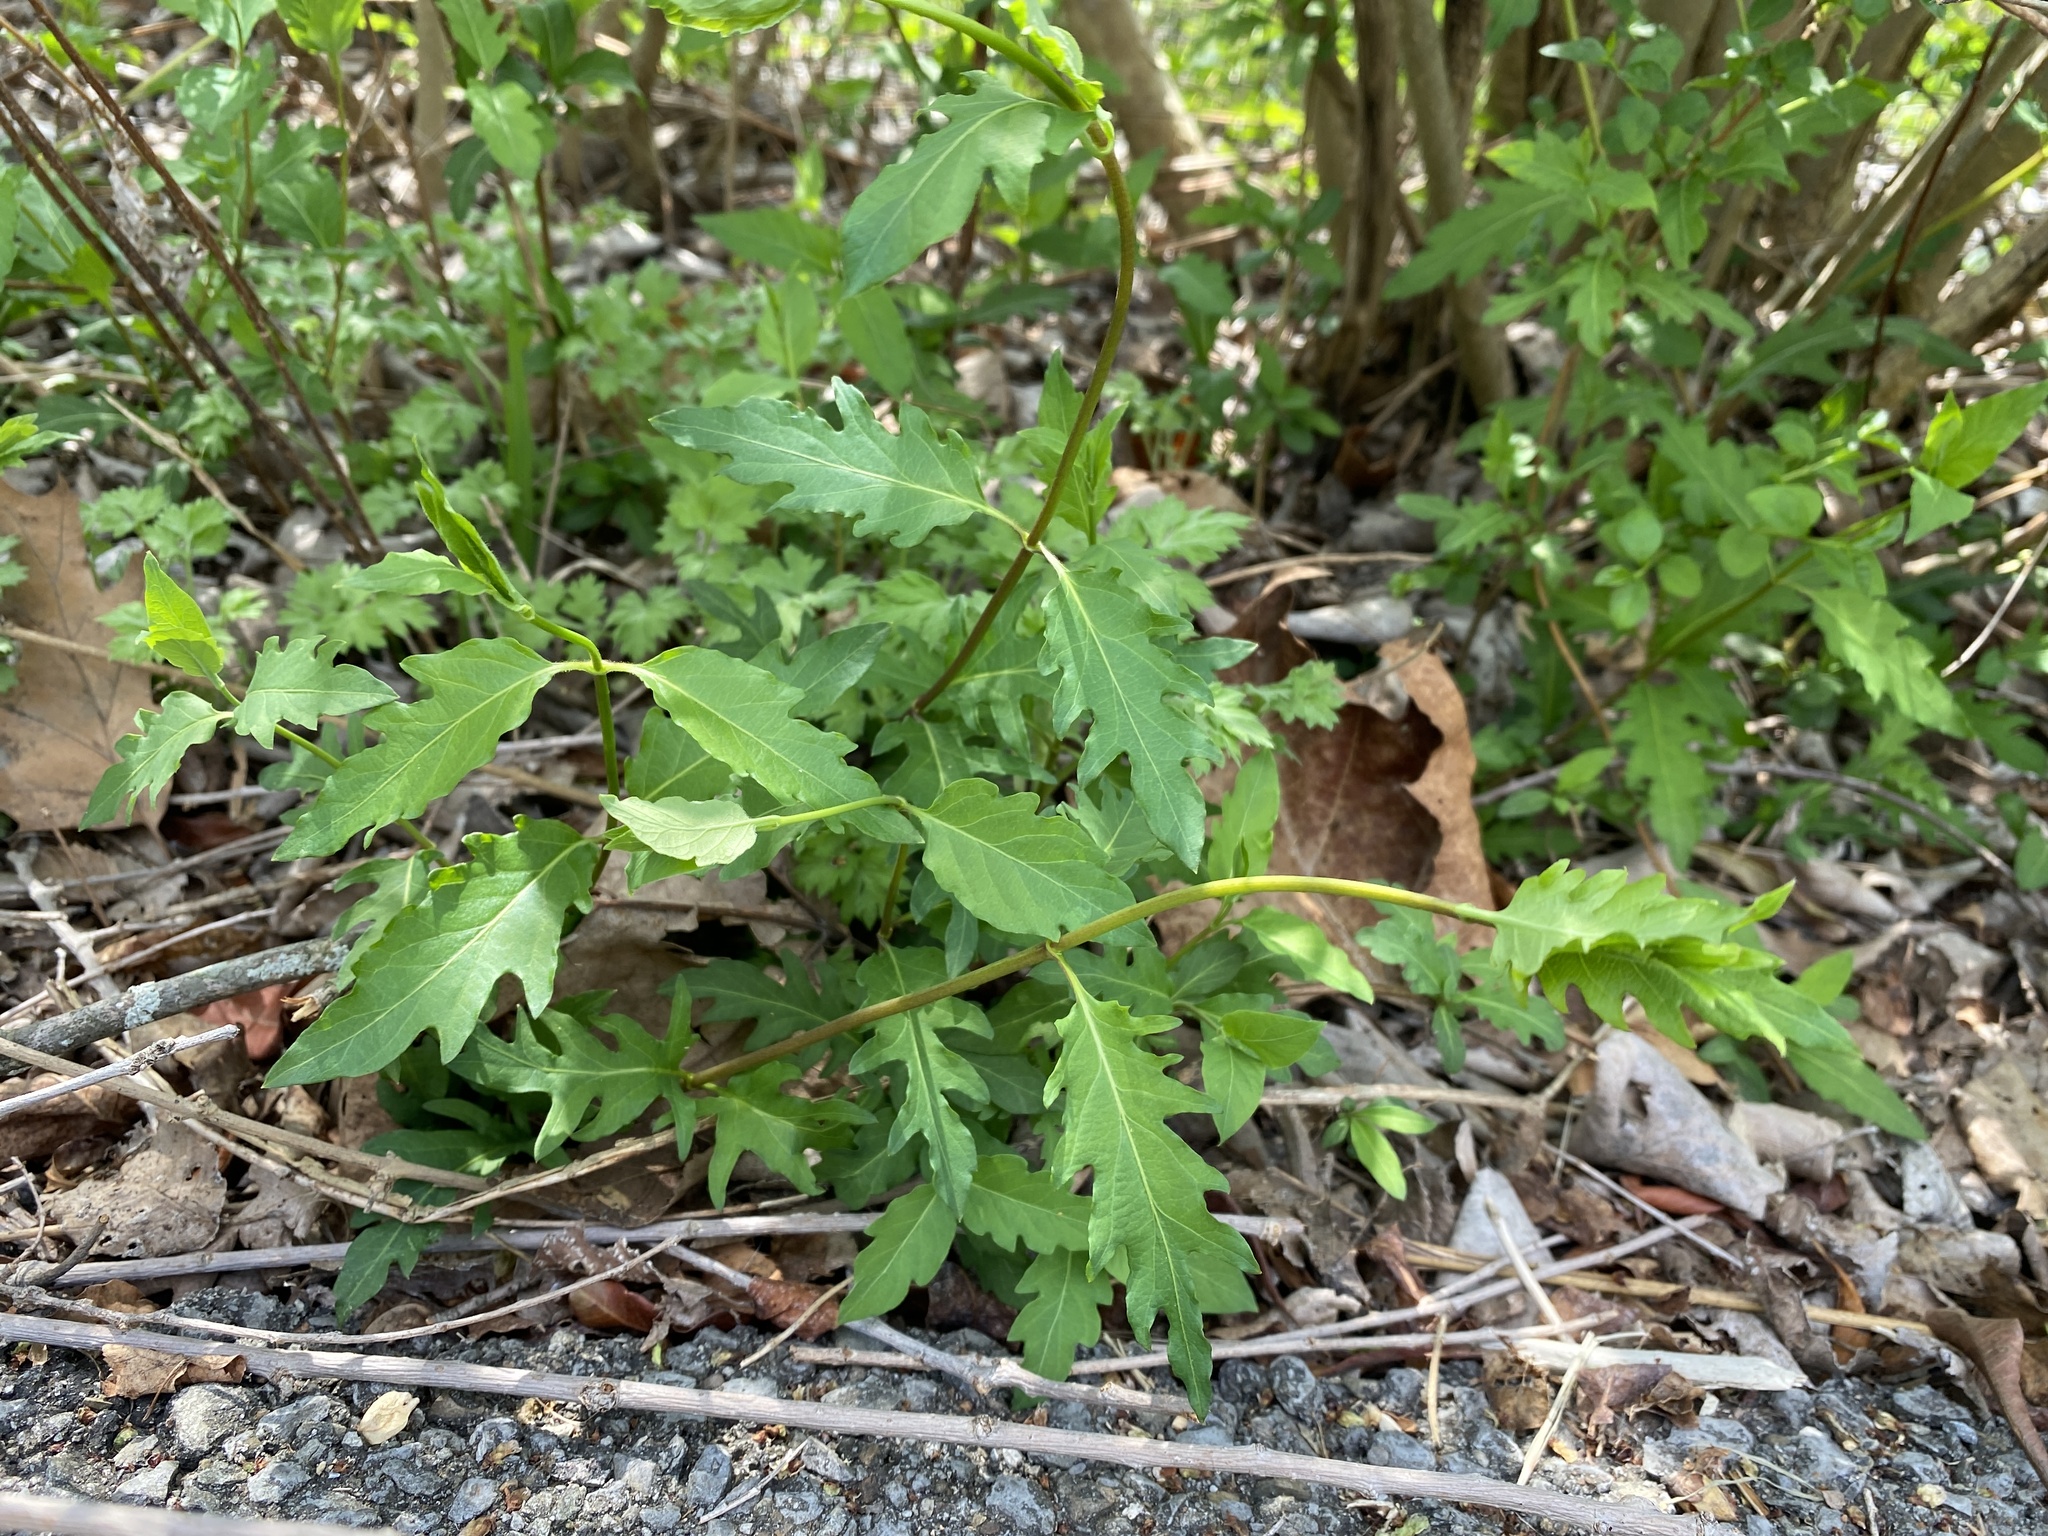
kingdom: Plantae
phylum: Tracheophyta
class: Magnoliopsida
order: Dipsacales
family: Caprifoliaceae
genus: Lonicera
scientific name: Lonicera japonica
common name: Japanese honeysuckle
